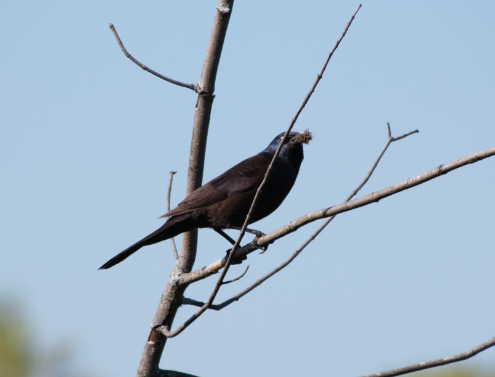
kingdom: Animalia
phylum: Chordata
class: Aves
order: Passeriformes
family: Icteridae
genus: Quiscalus
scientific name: Quiscalus quiscula
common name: Common grackle
